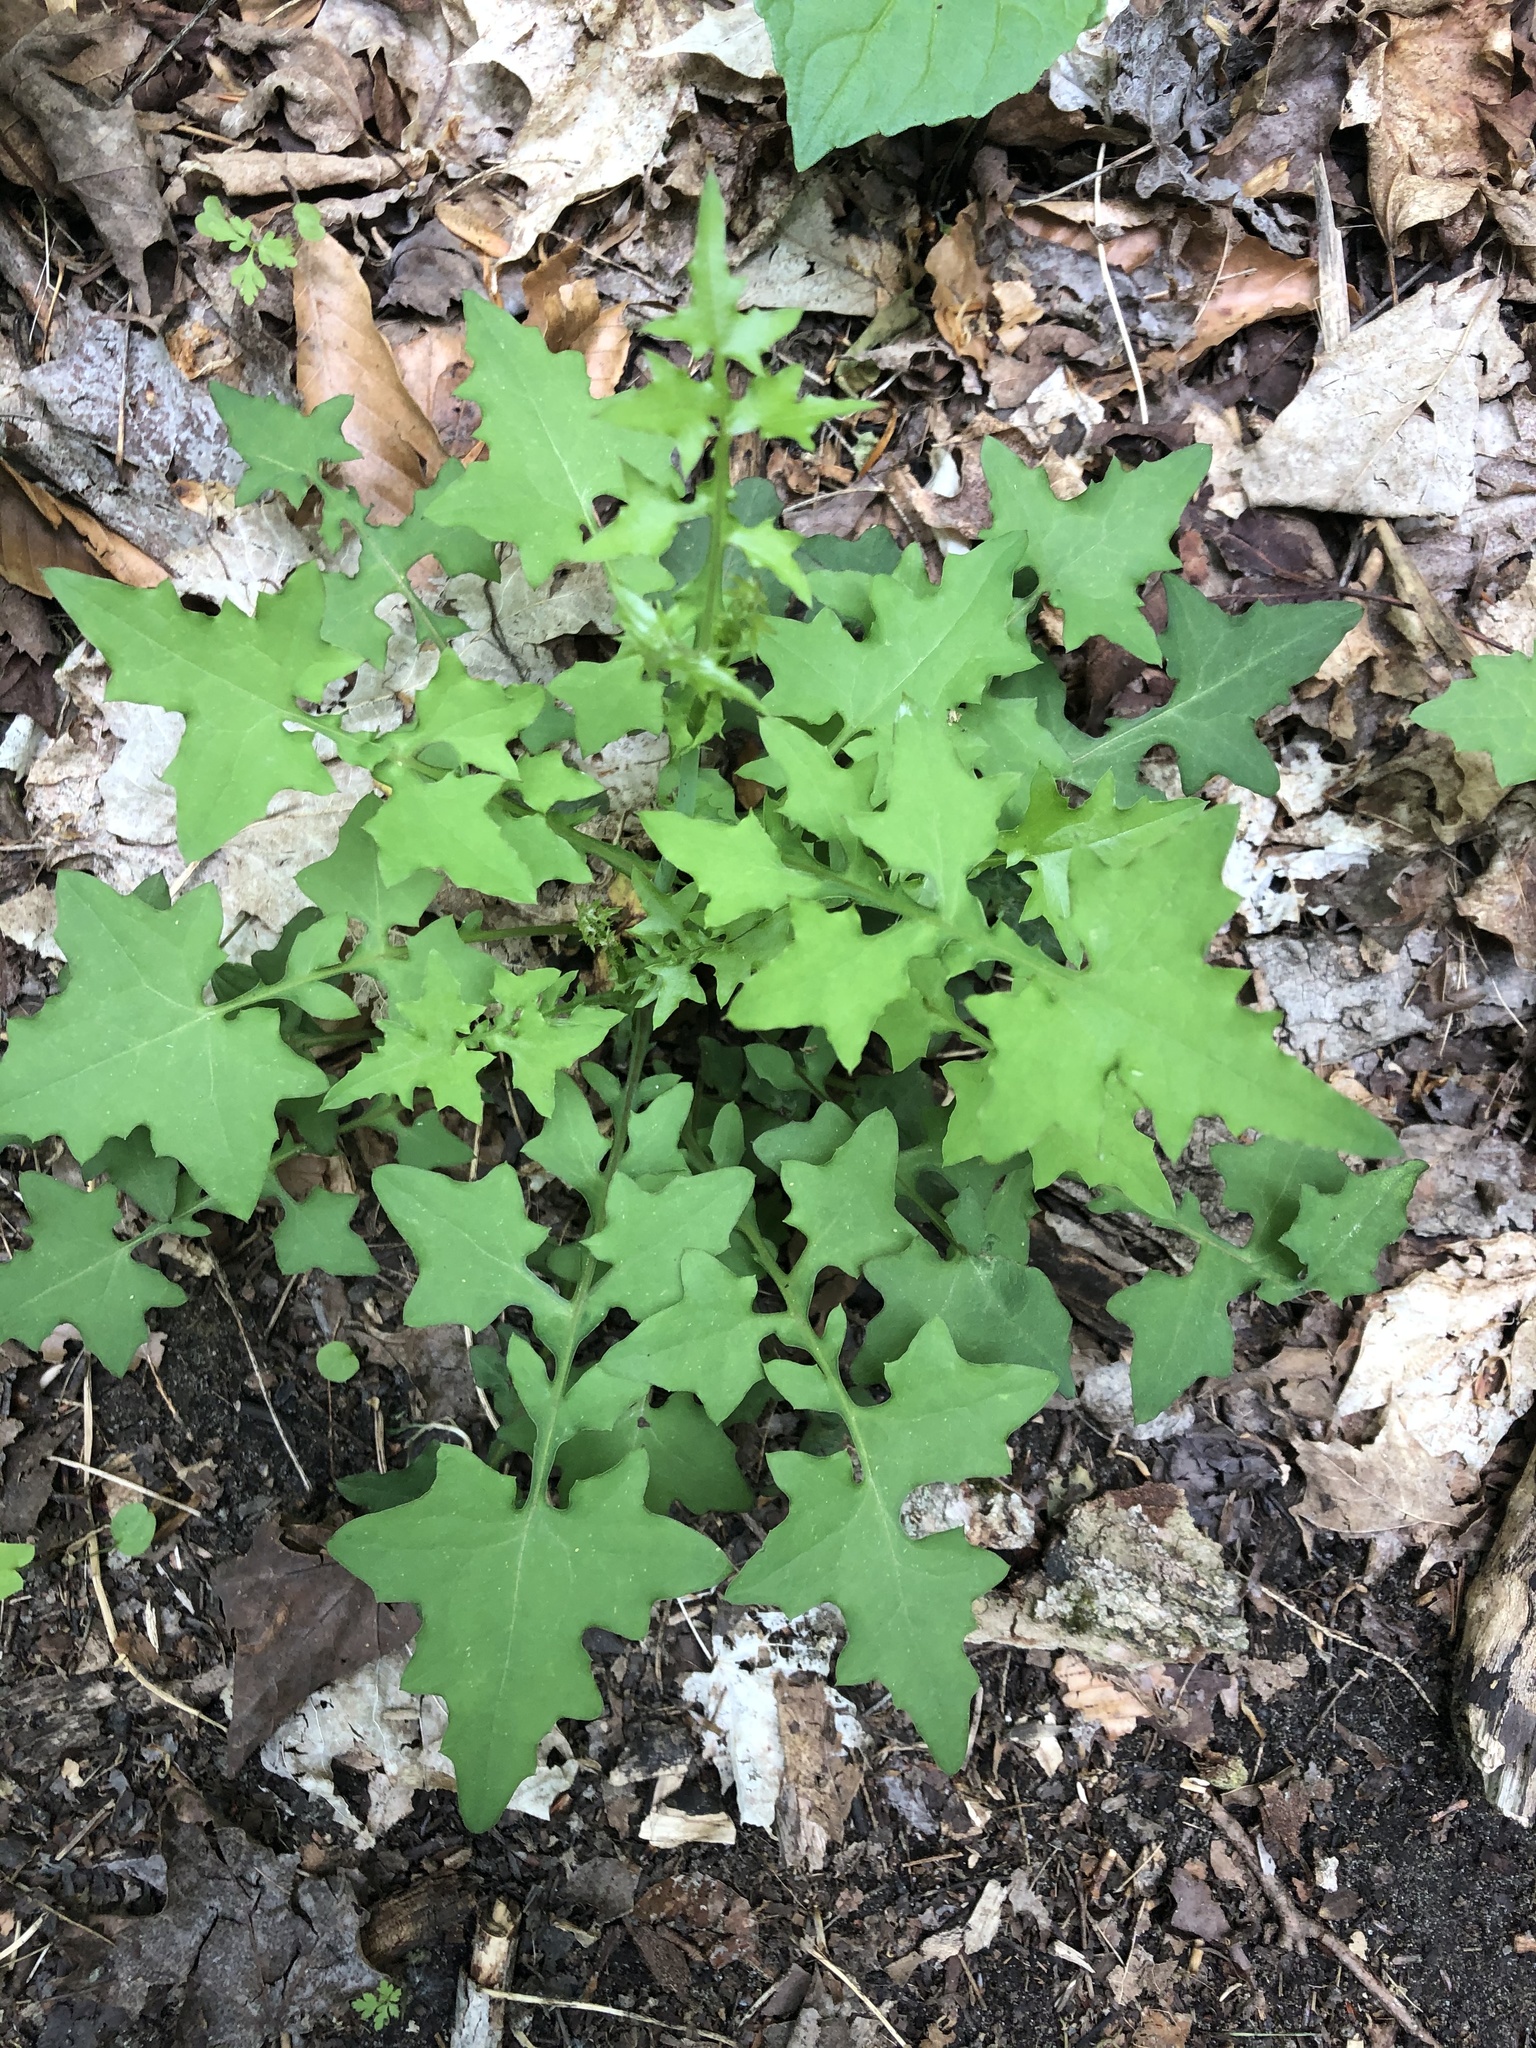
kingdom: Plantae
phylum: Tracheophyta
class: Magnoliopsida
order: Asterales
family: Asteraceae
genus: Mycelis
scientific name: Mycelis muralis
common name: Wall lettuce
